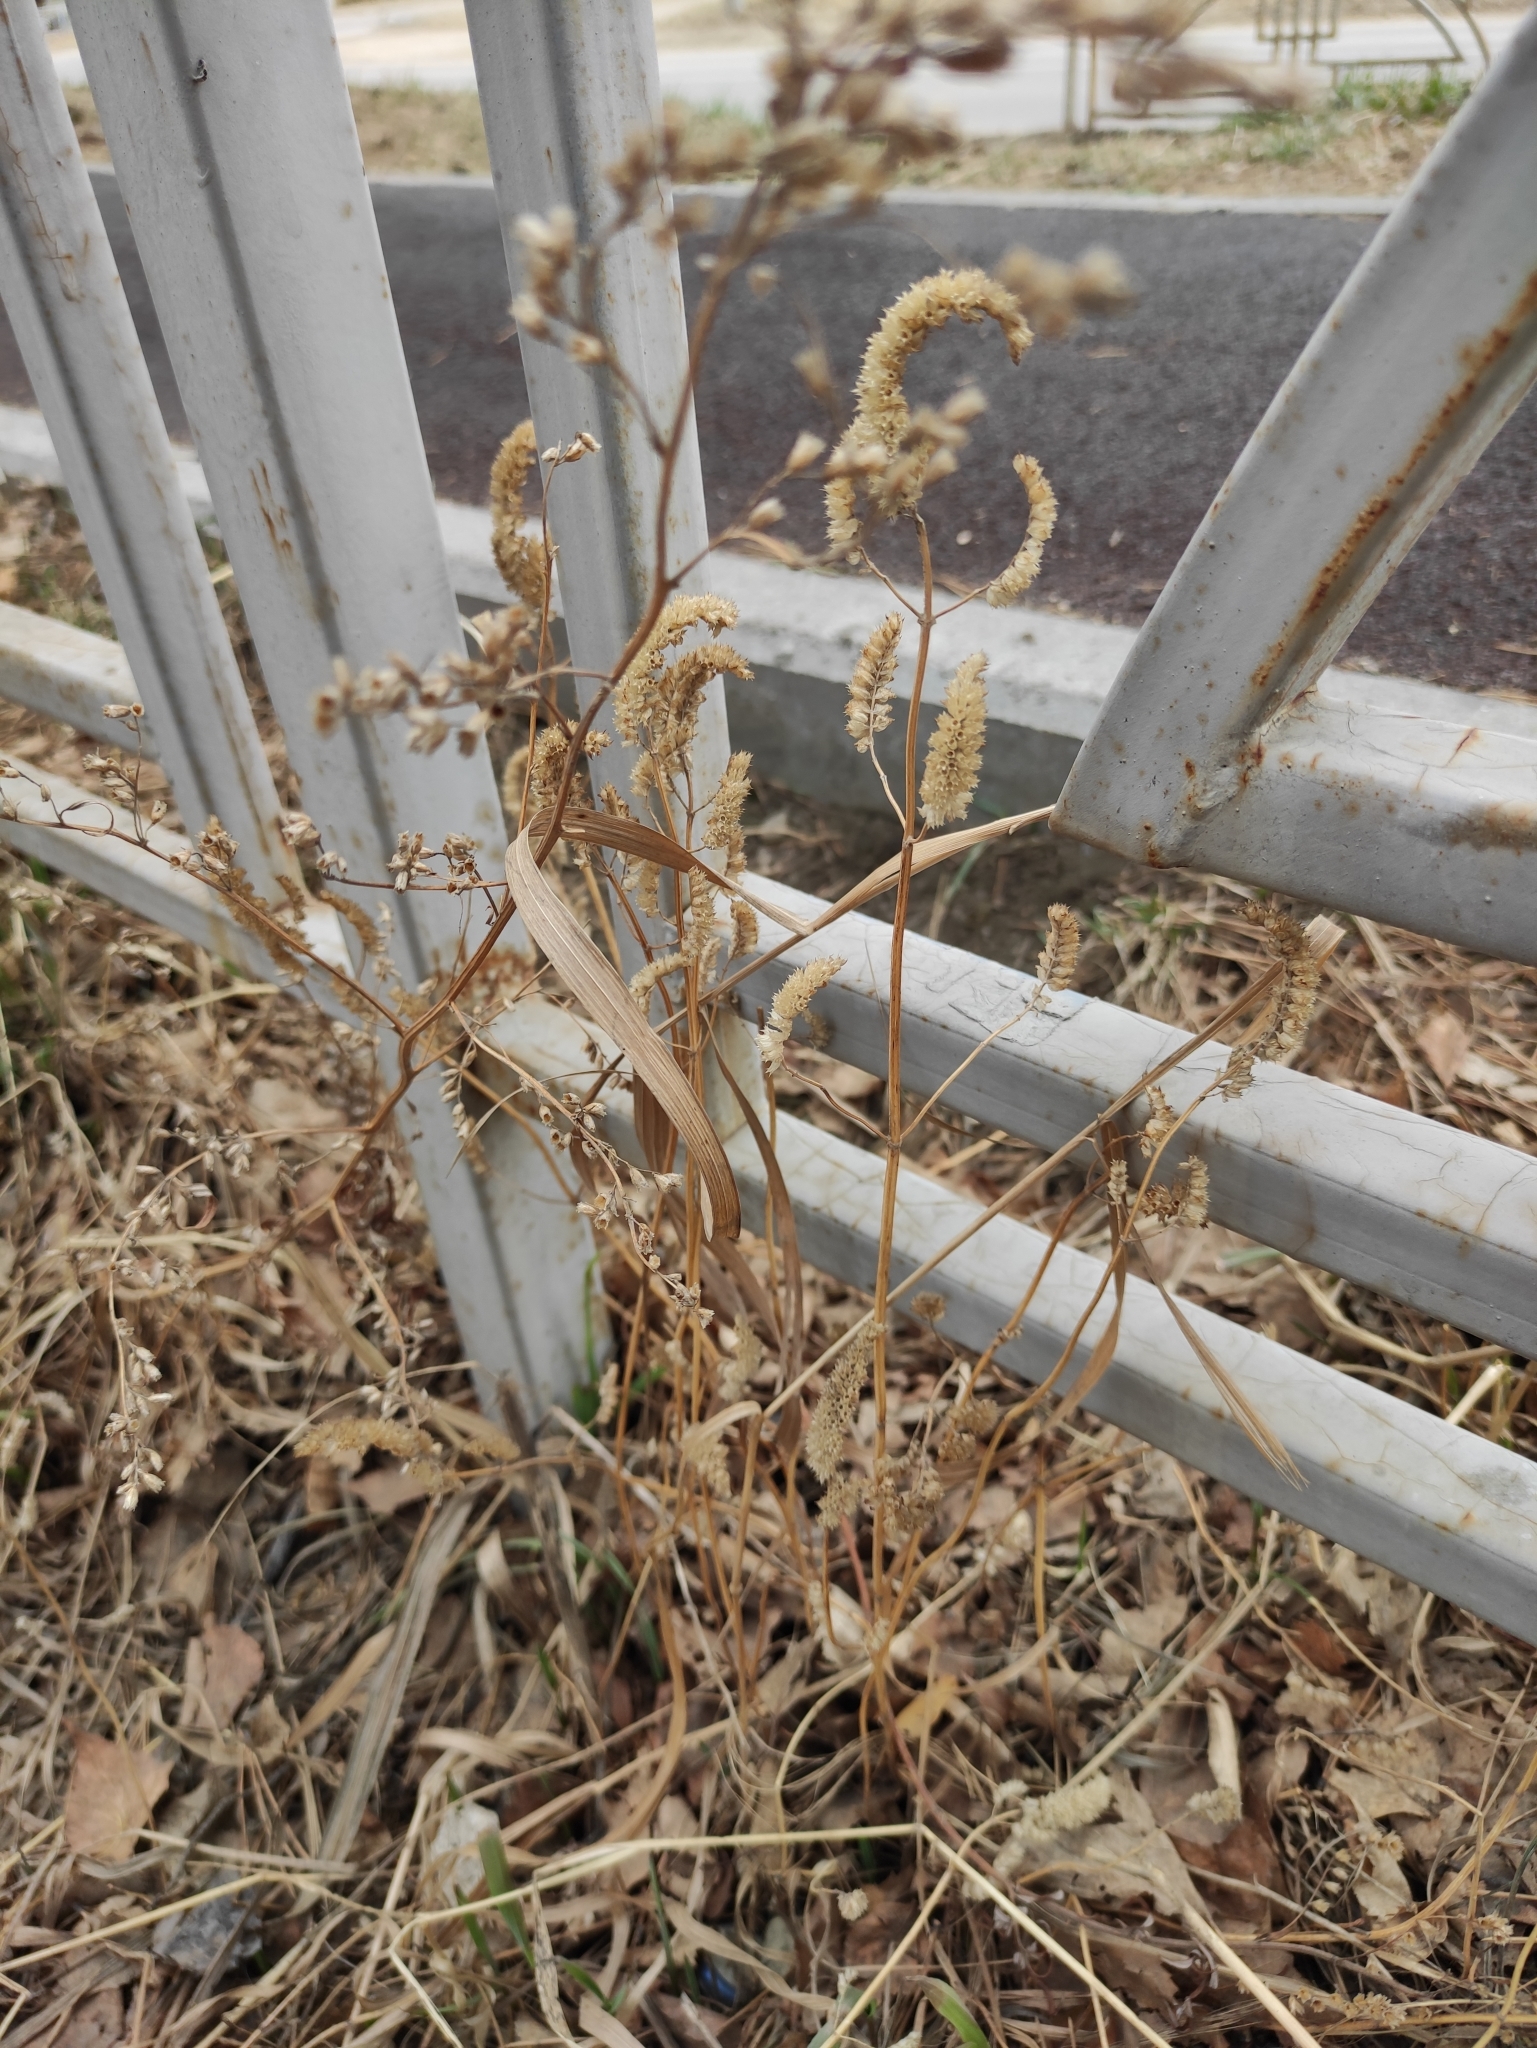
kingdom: Plantae
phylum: Tracheophyta
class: Magnoliopsida
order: Lamiales
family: Lamiaceae
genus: Elsholtzia
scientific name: Elsholtzia ciliata
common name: Ciliate elsholtzia
